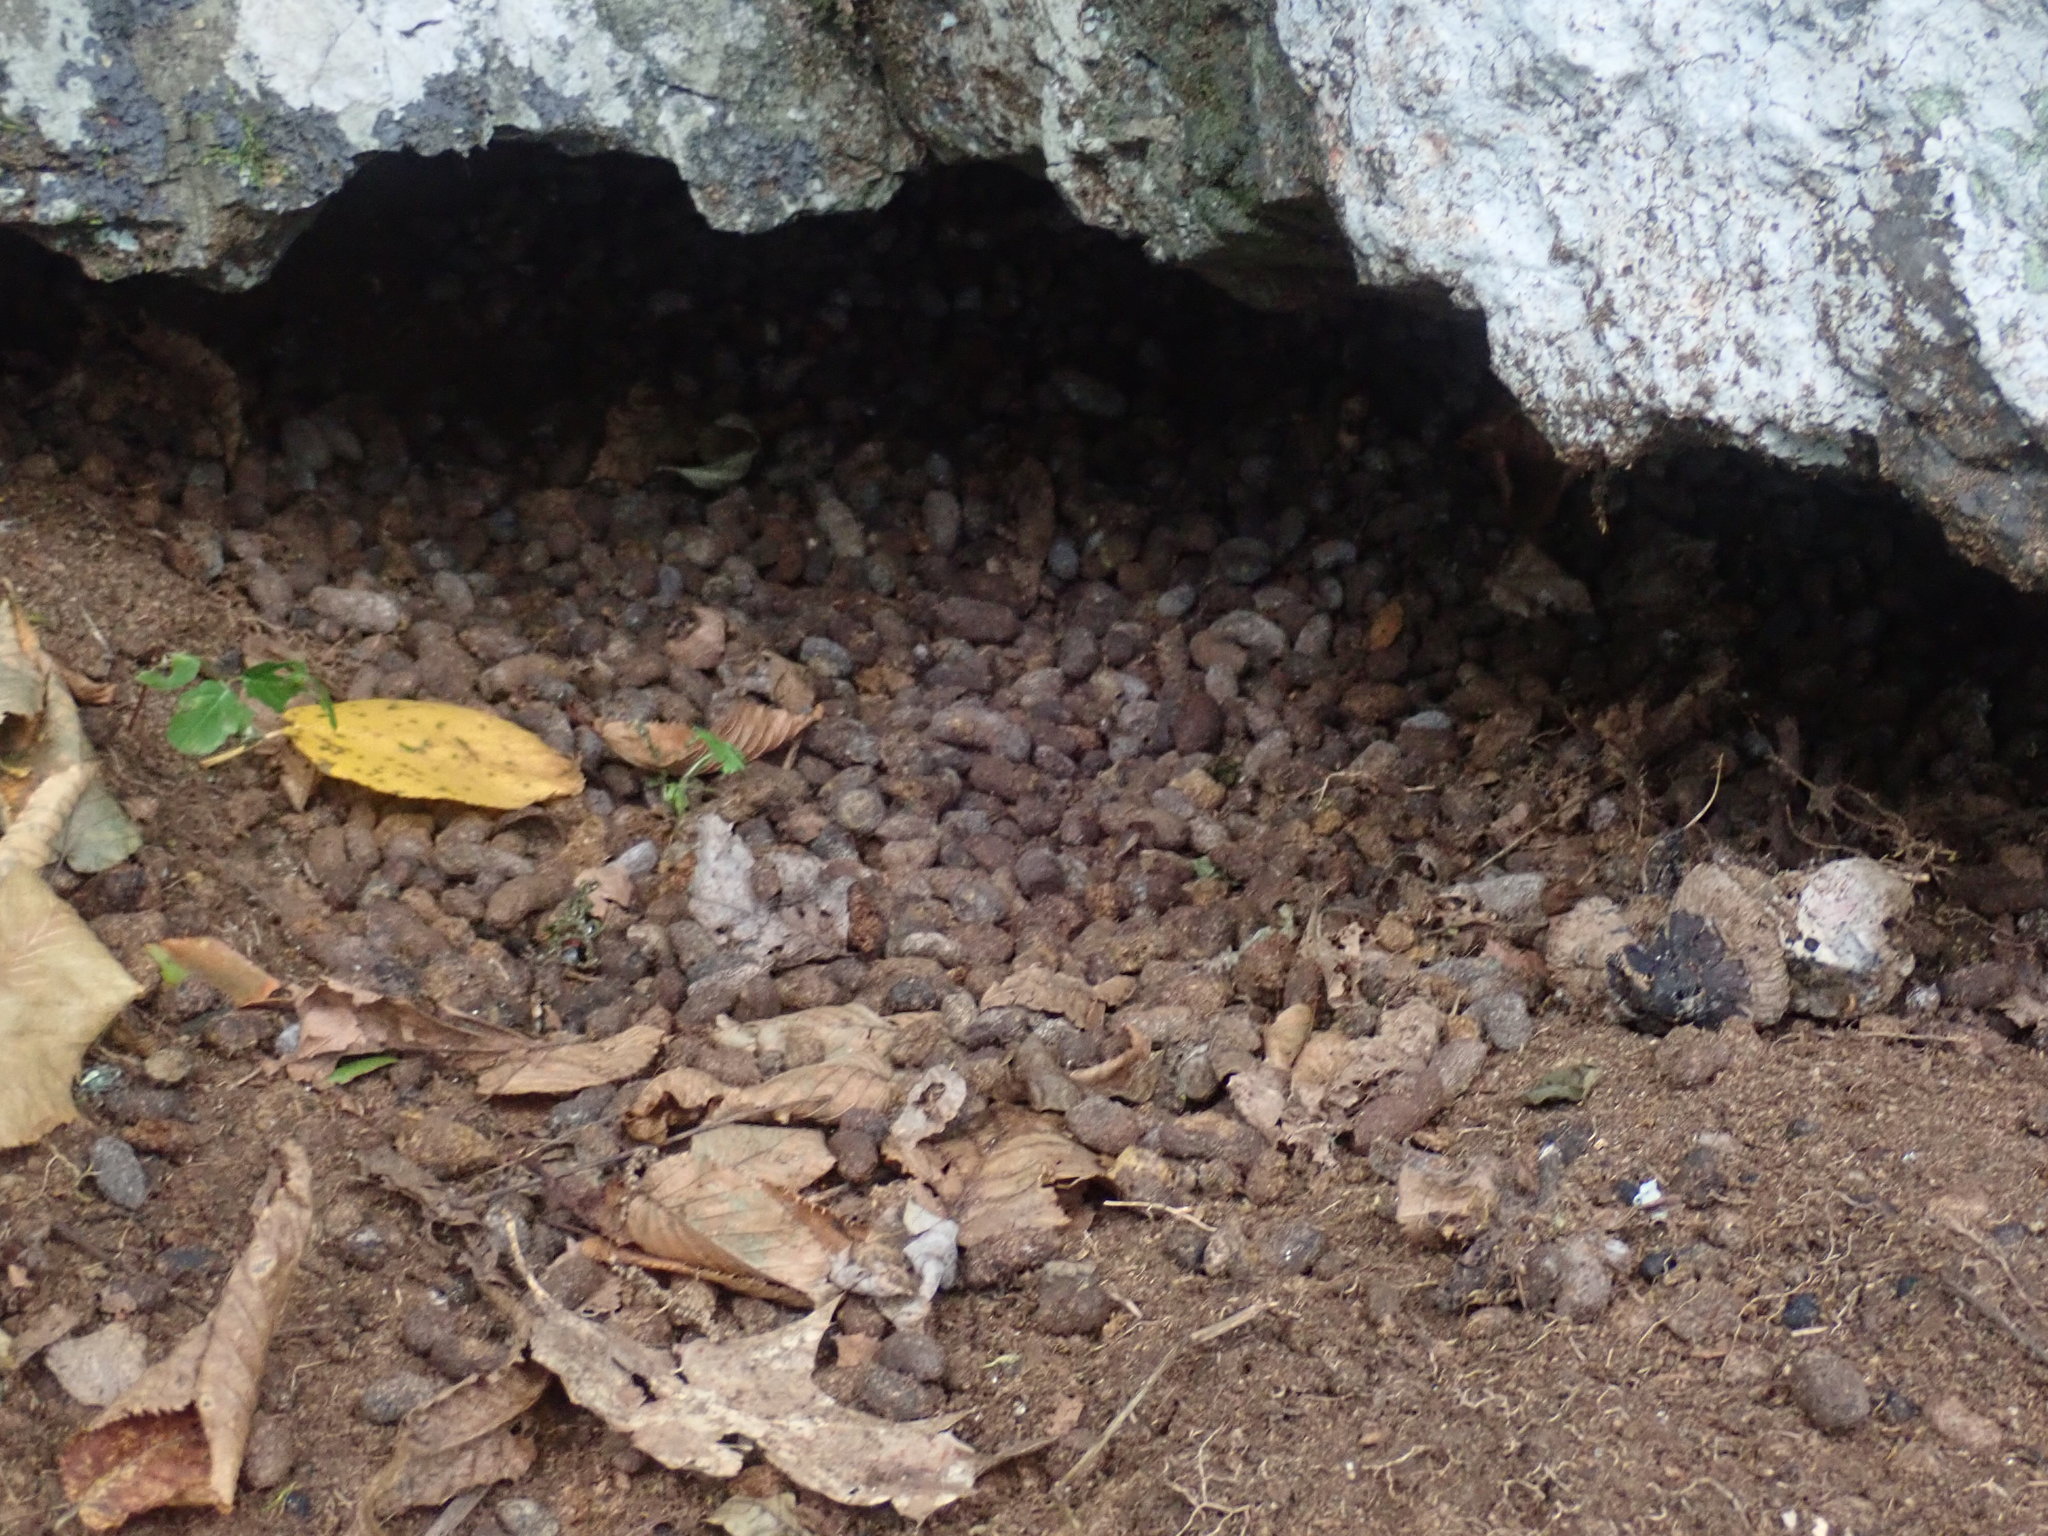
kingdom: Animalia
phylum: Chordata
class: Mammalia
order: Rodentia
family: Erethizontidae
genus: Erethizon
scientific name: Erethizon dorsatus
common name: North american porcupine
